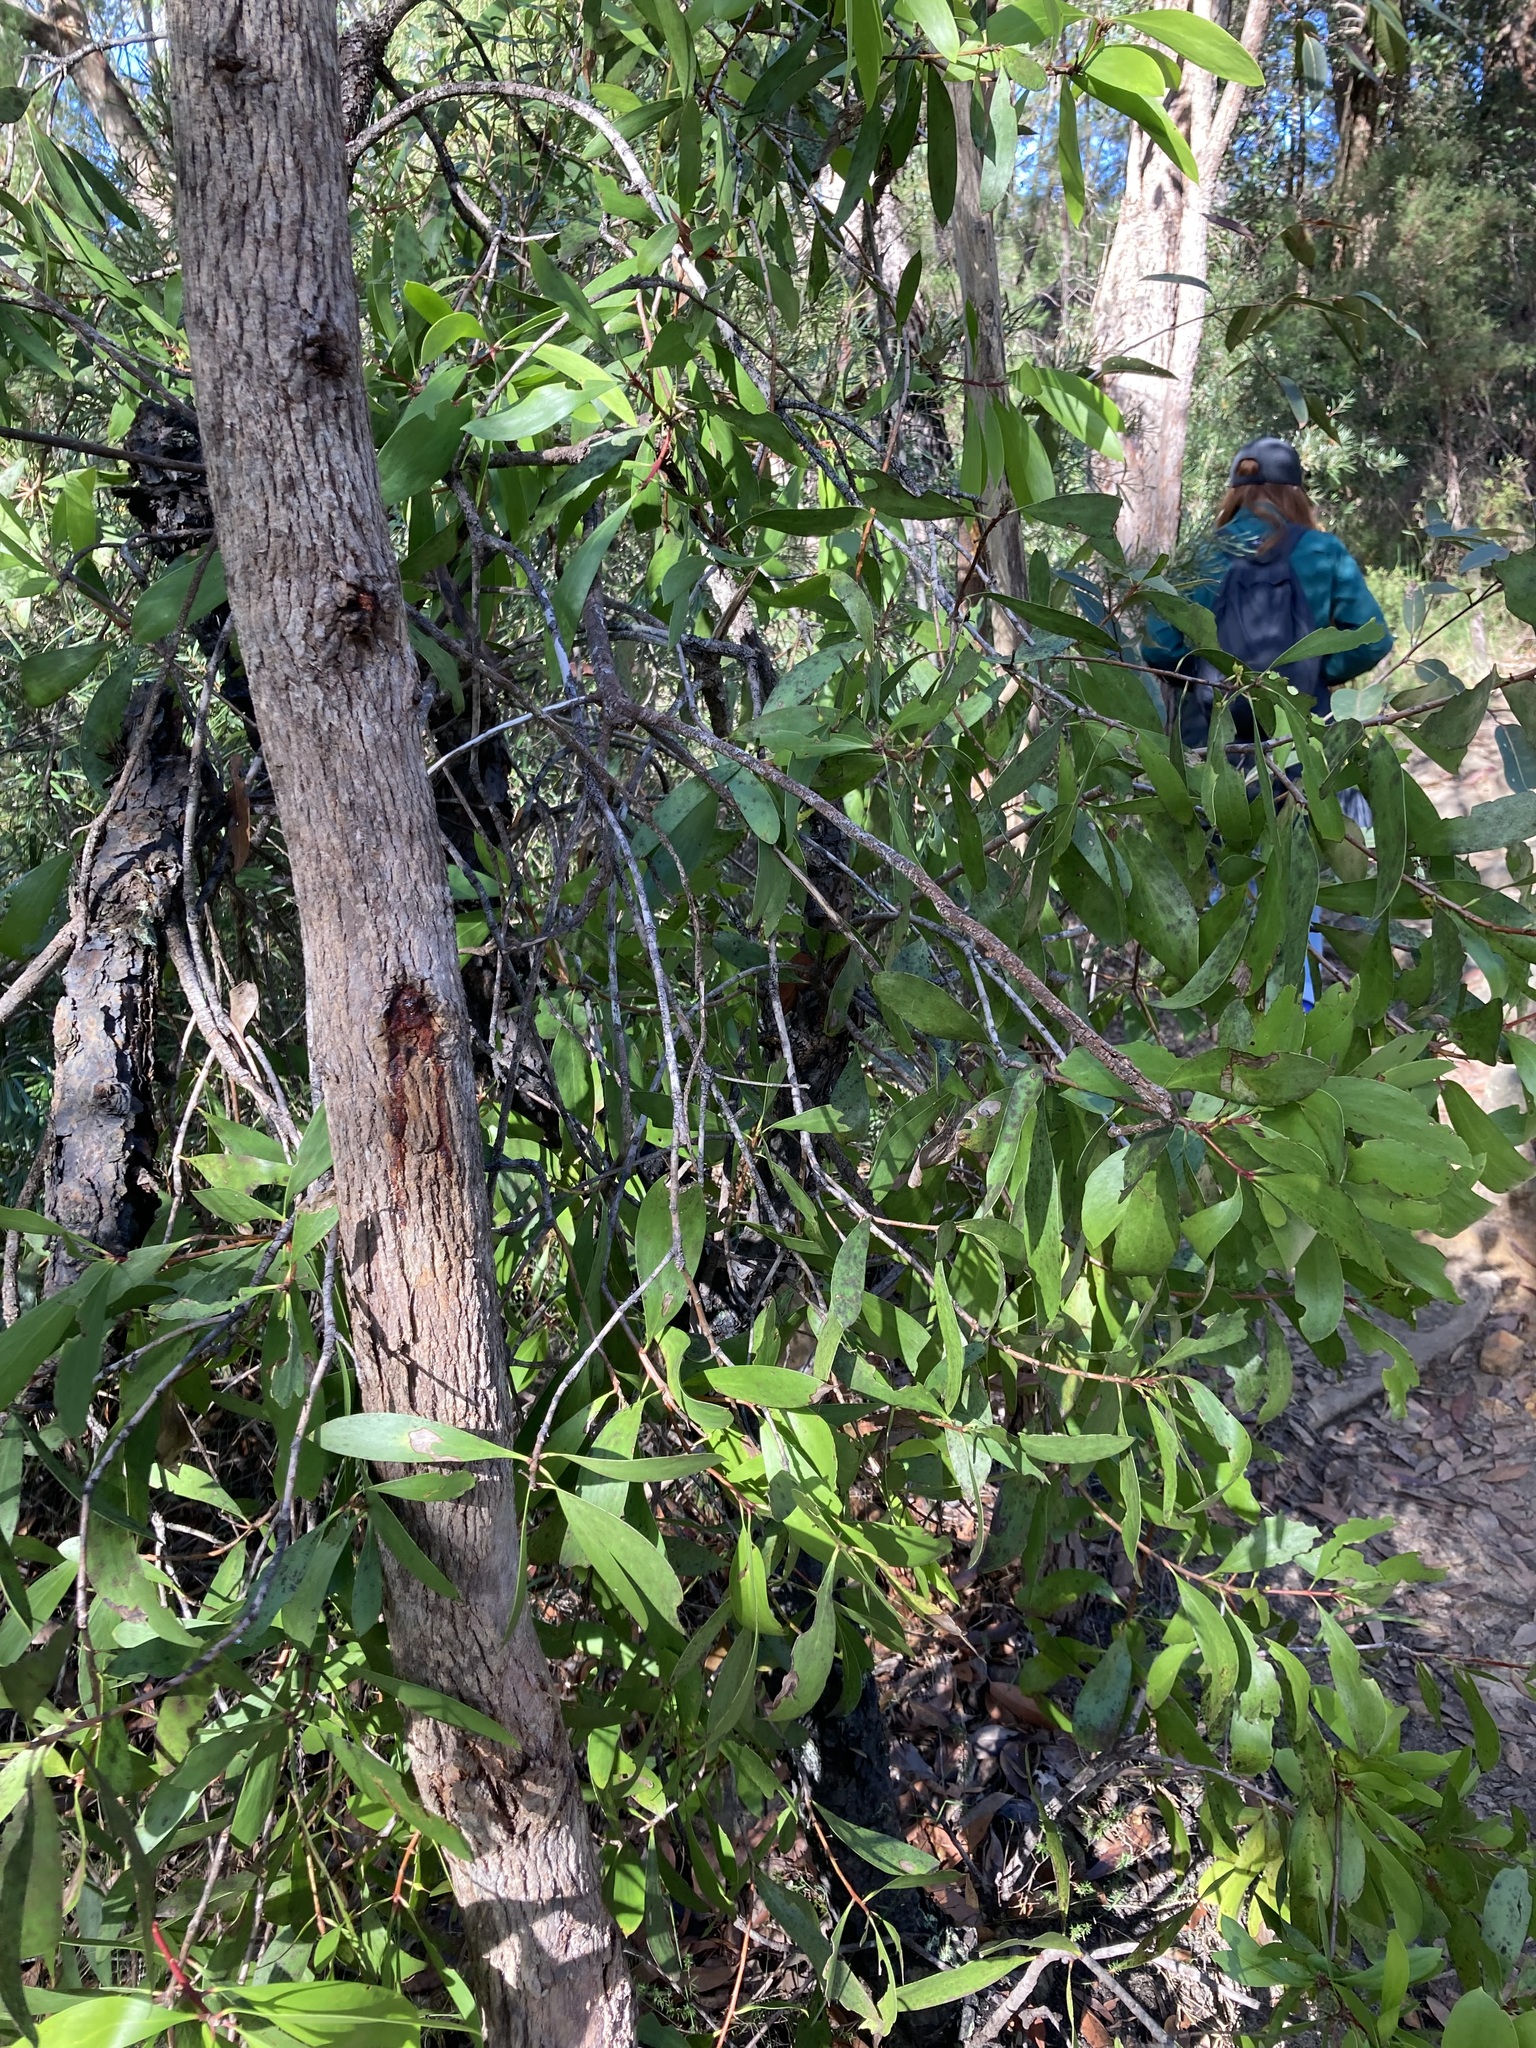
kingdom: Plantae
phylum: Tracheophyta
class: Magnoliopsida
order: Proteales
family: Proteaceae
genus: Persoonia
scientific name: Persoonia levis
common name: Smooth geebung
